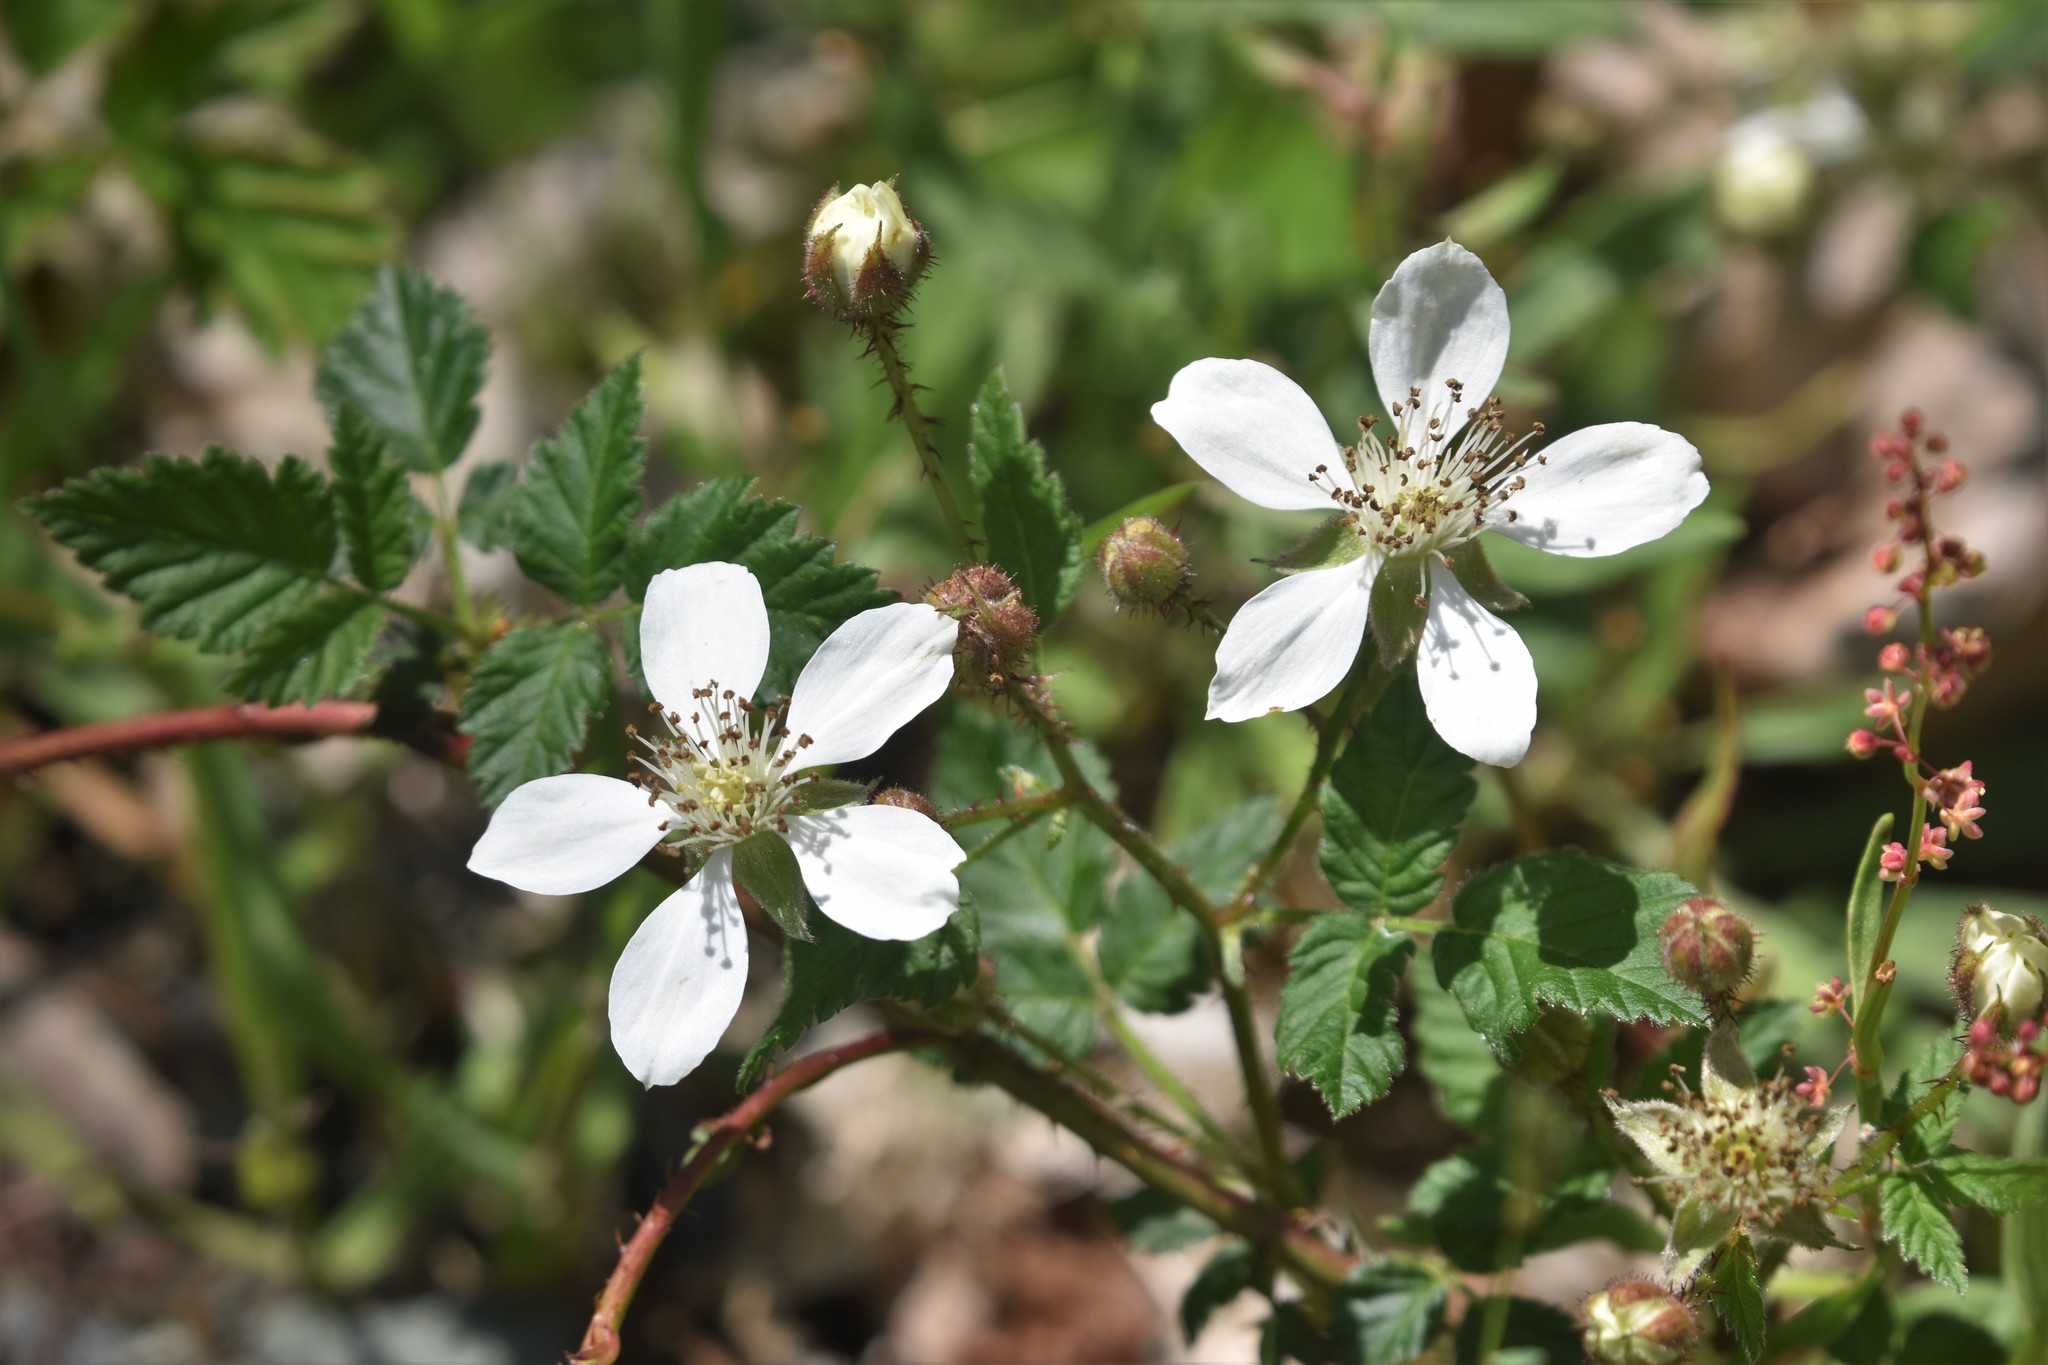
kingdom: Plantae
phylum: Tracheophyta
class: Magnoliopsida
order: Rosales
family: Rosaceae
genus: Rubus
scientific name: Rubus ursinus
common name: Pacific blackberry
